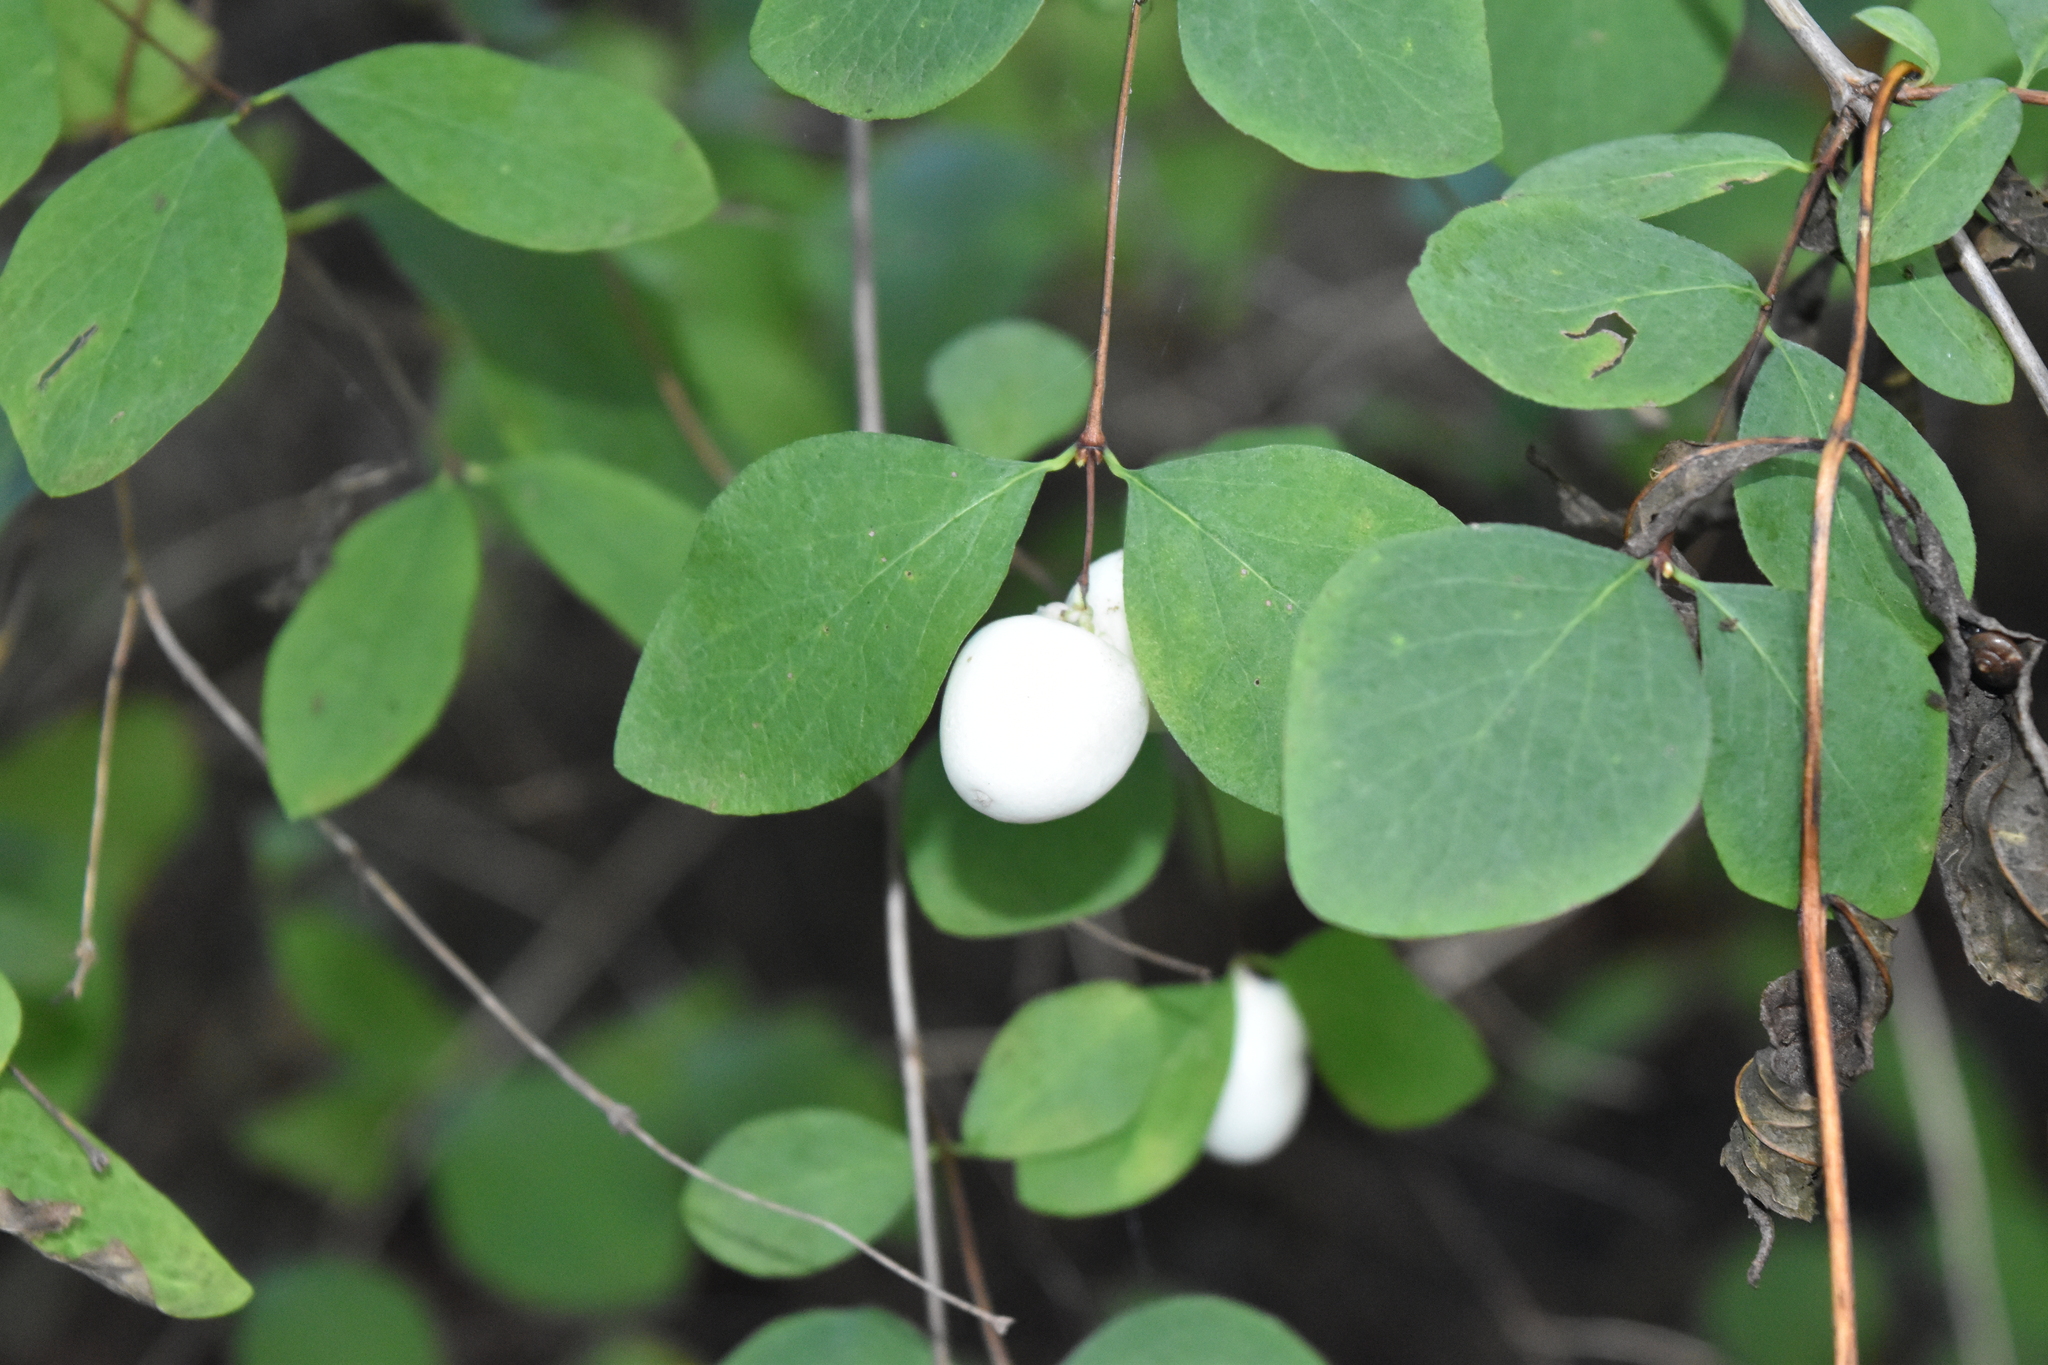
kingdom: Plantae
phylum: Tracheophyta
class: Magnoliopsida
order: Dipsacales
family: Caprifoliaceae
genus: Symphoricarpos
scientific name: Symphoricarpos albus
